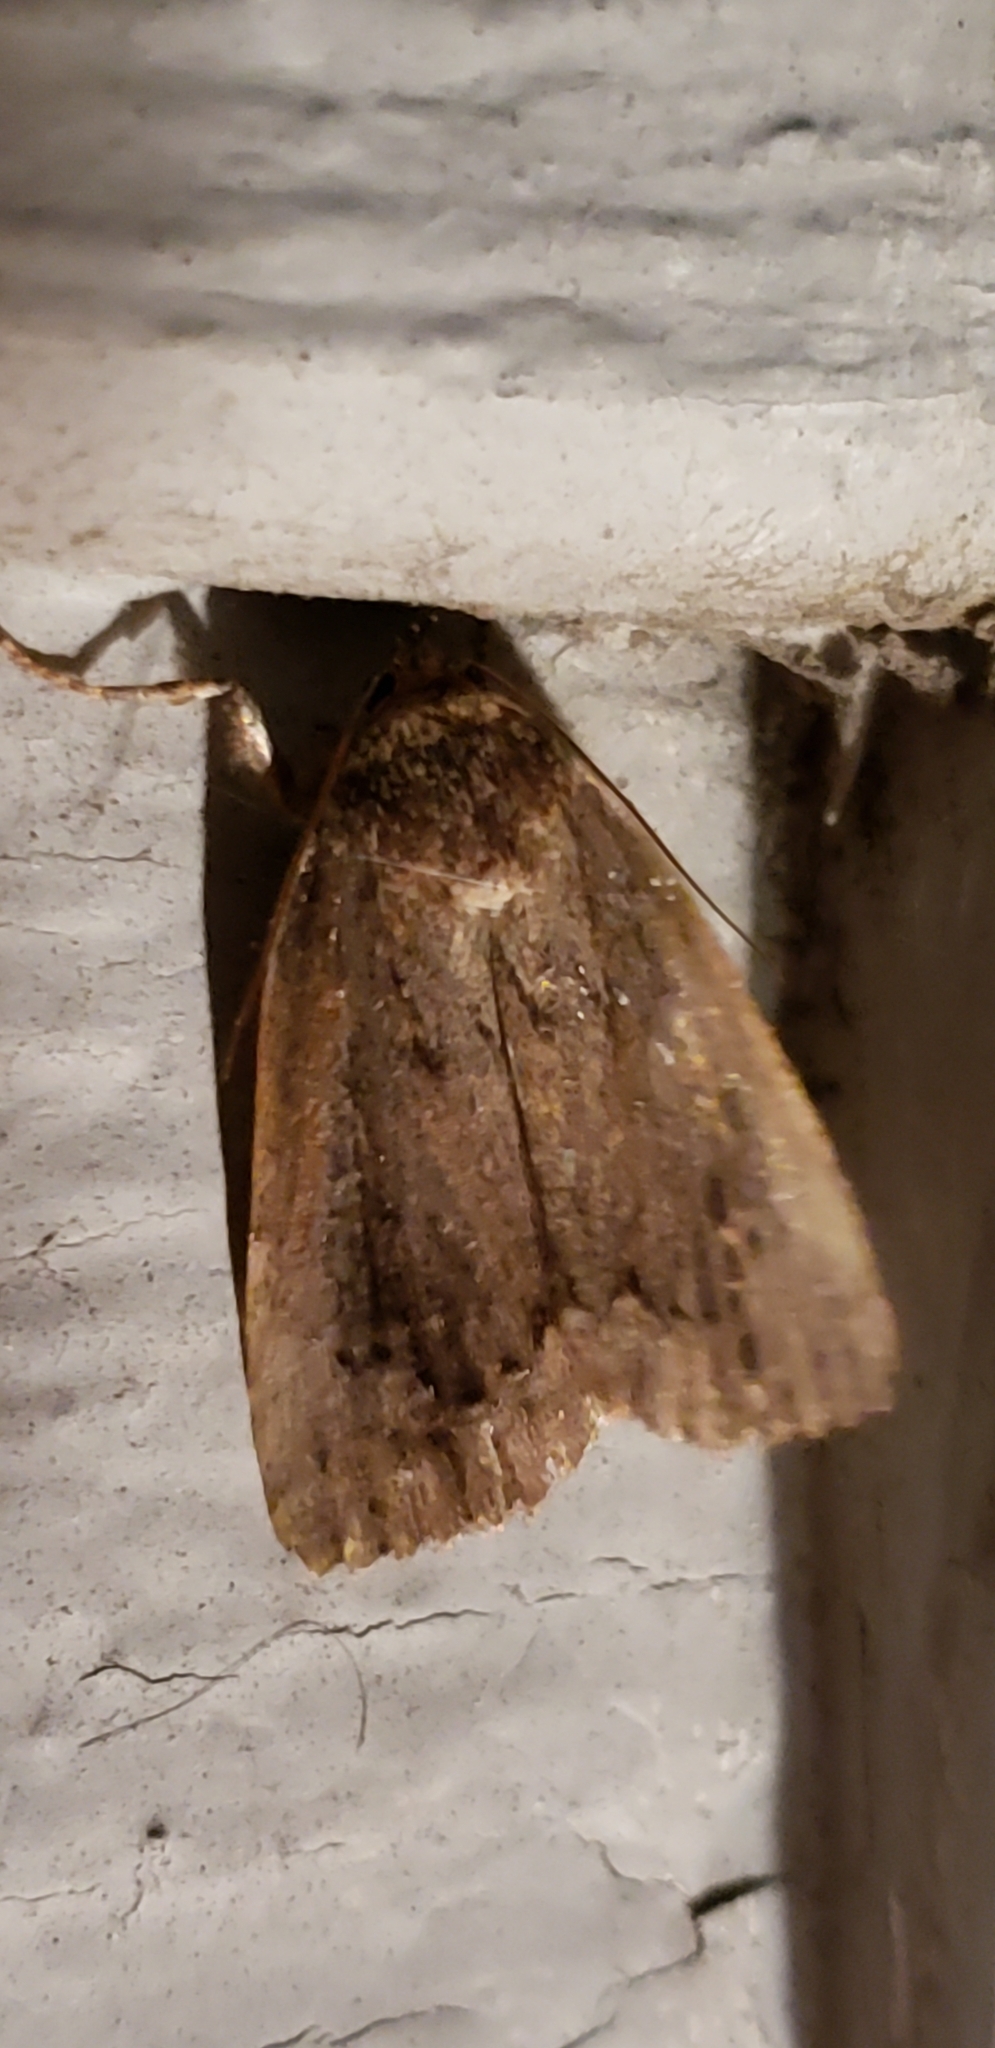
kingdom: Animalia
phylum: Arthropoda
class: Insecta
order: Lepidoptera
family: Noctuidae
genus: Amphipyra
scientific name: Amphipyra pyramidoides
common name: American copper underwing
